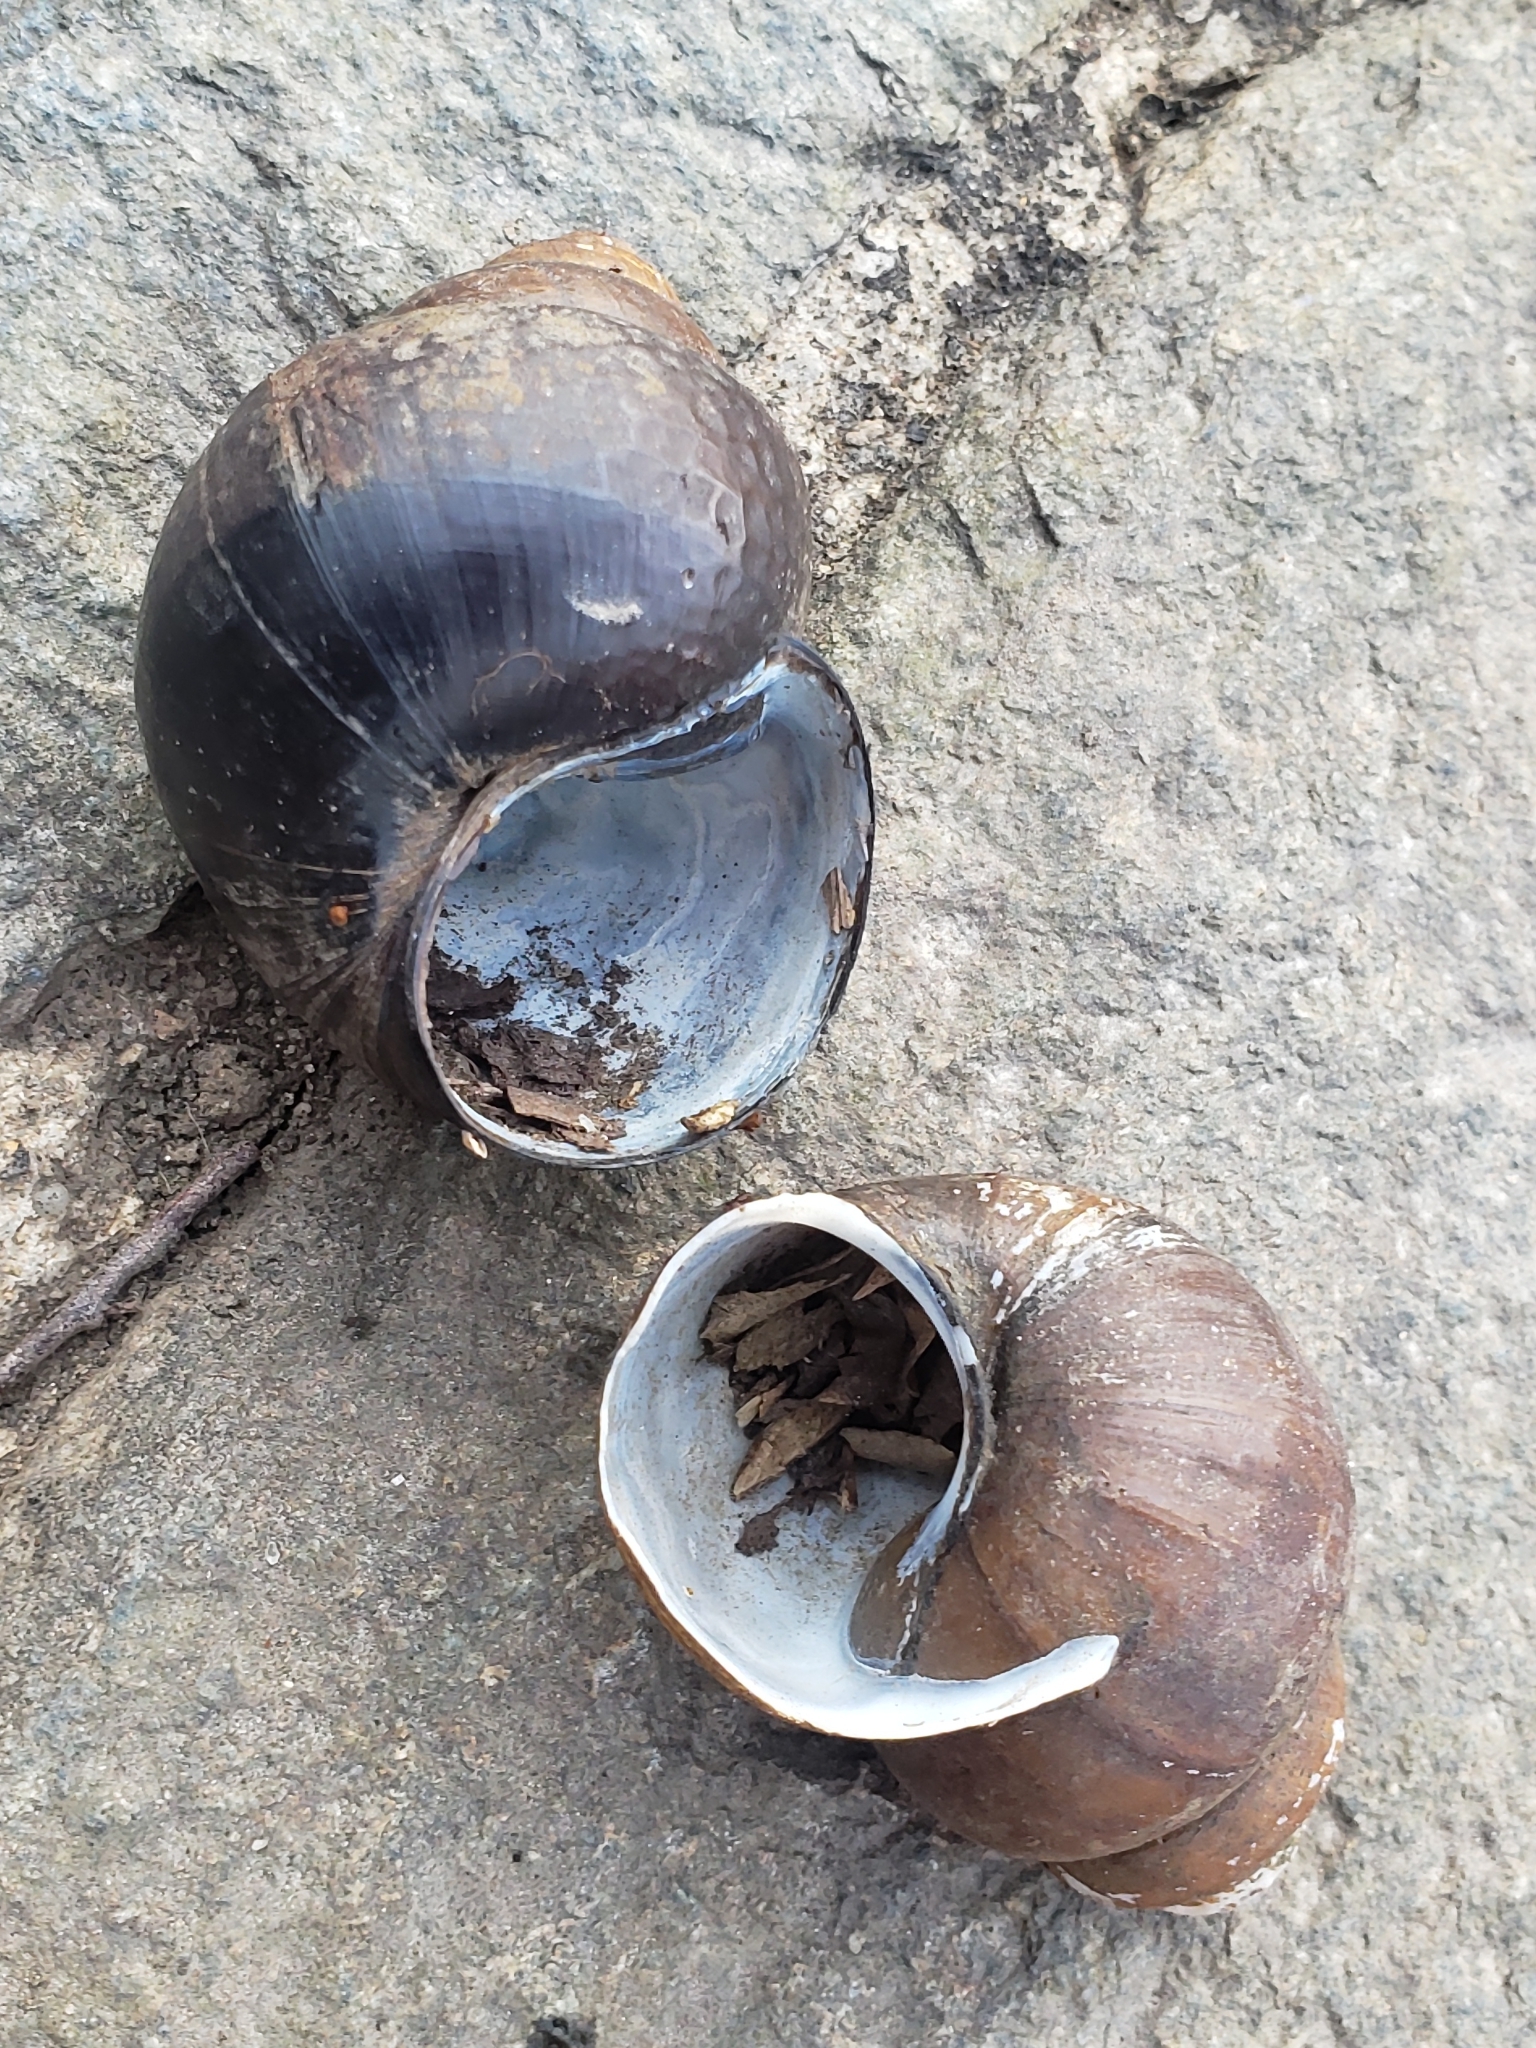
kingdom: Animalia
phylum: Mollusca
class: Gastropoda
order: Architaenioglossa
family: Viviparidae
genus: Cipangopaludina
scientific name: Cipangopaludina chinensis
